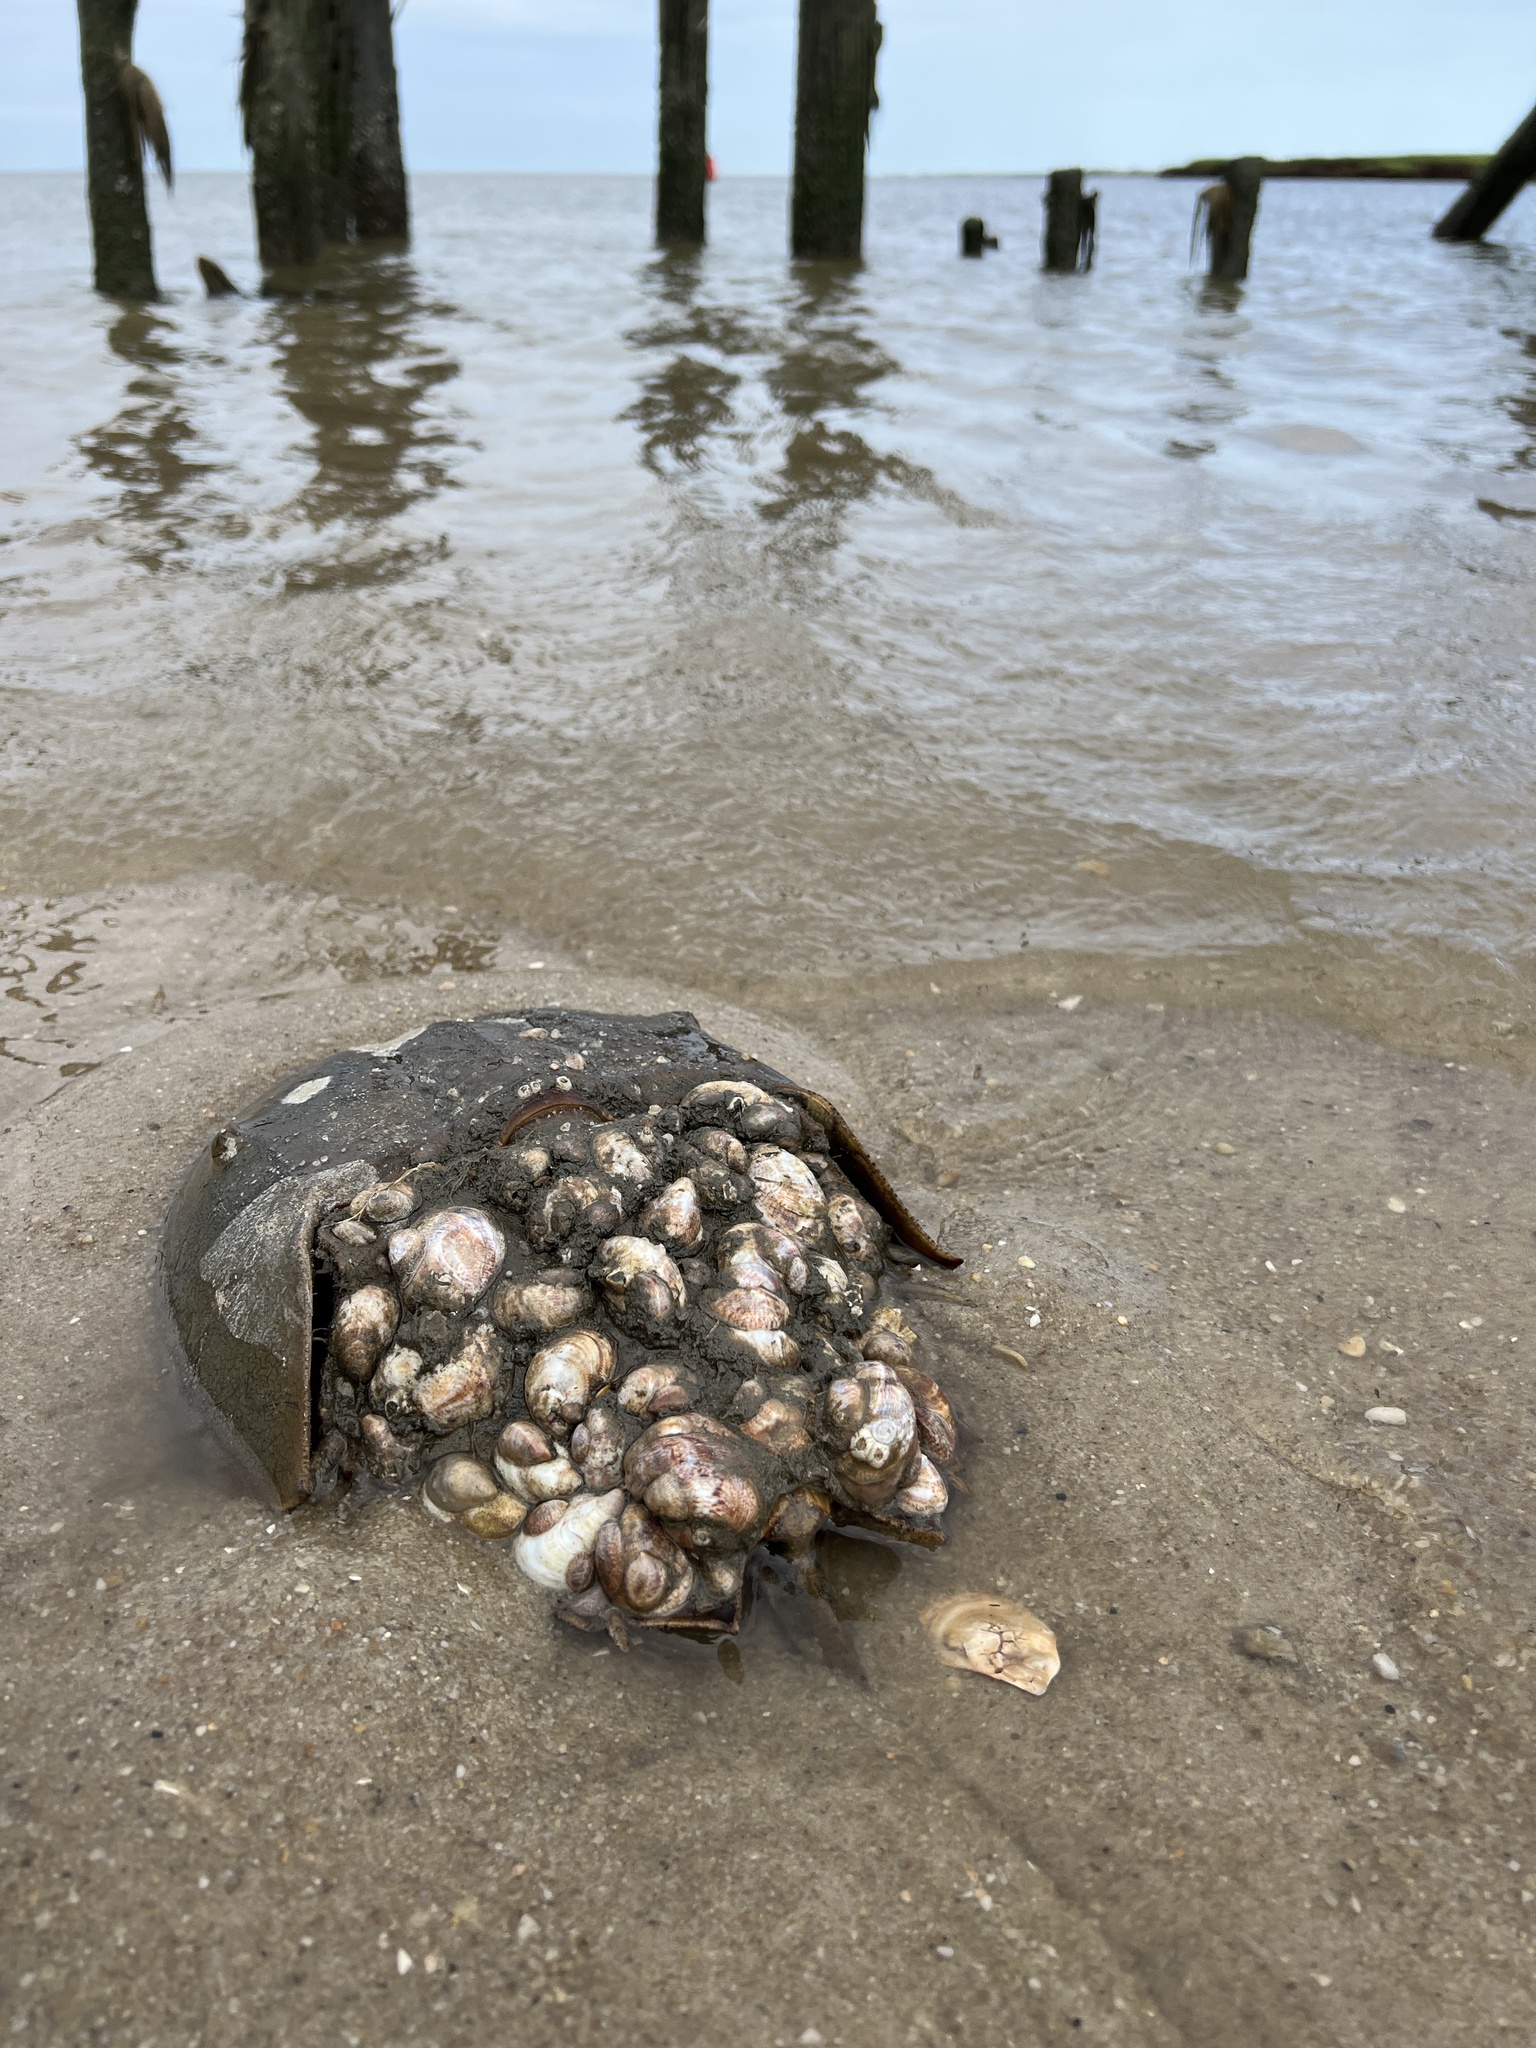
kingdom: Animalia
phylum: Mollusca
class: Gastropoda
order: Littorinimorpha
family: Calyptraeidae
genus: Crepidula
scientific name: Crepidula fornicata
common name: Slipper limpet
